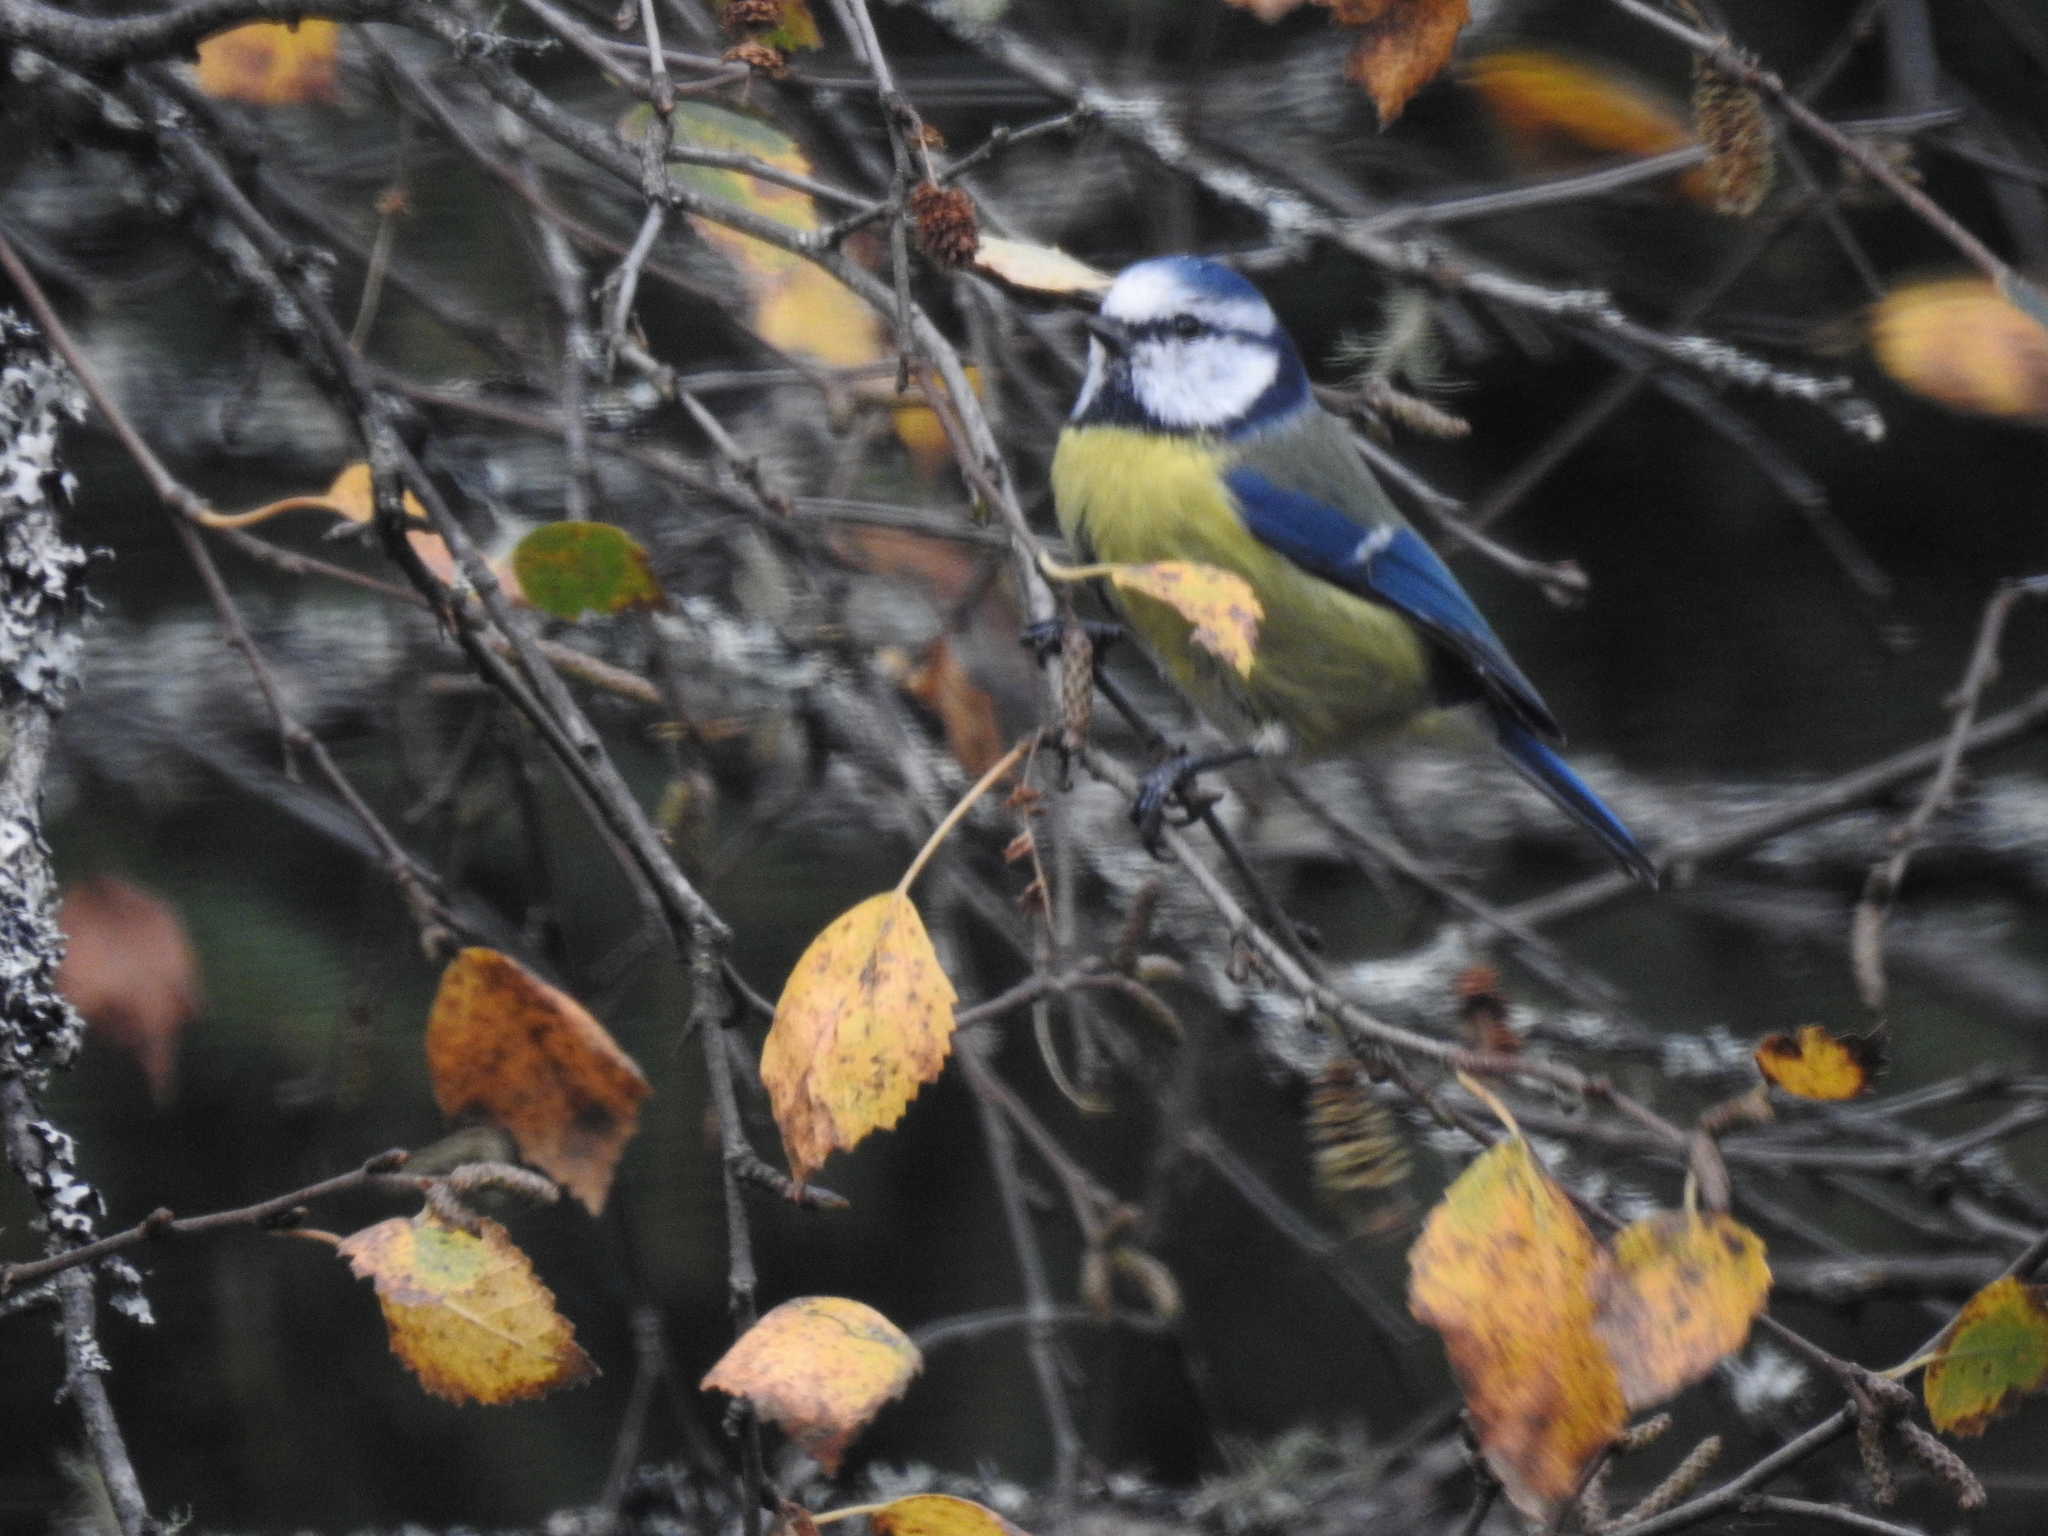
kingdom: Animalia
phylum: Chordata
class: Aves
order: Passeriformes
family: Paridae
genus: Cyanistes
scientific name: Cyanistes caeruleus
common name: Eurasian blue tit
